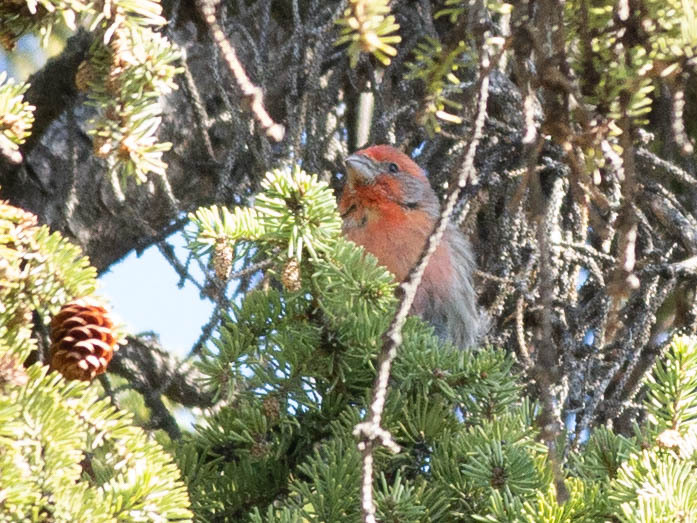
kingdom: Animalia
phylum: Chordata
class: Aves
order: Passeriformes
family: Fringillidae
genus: Haemorhous
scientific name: Haemorhous mexicanus
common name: House finch
